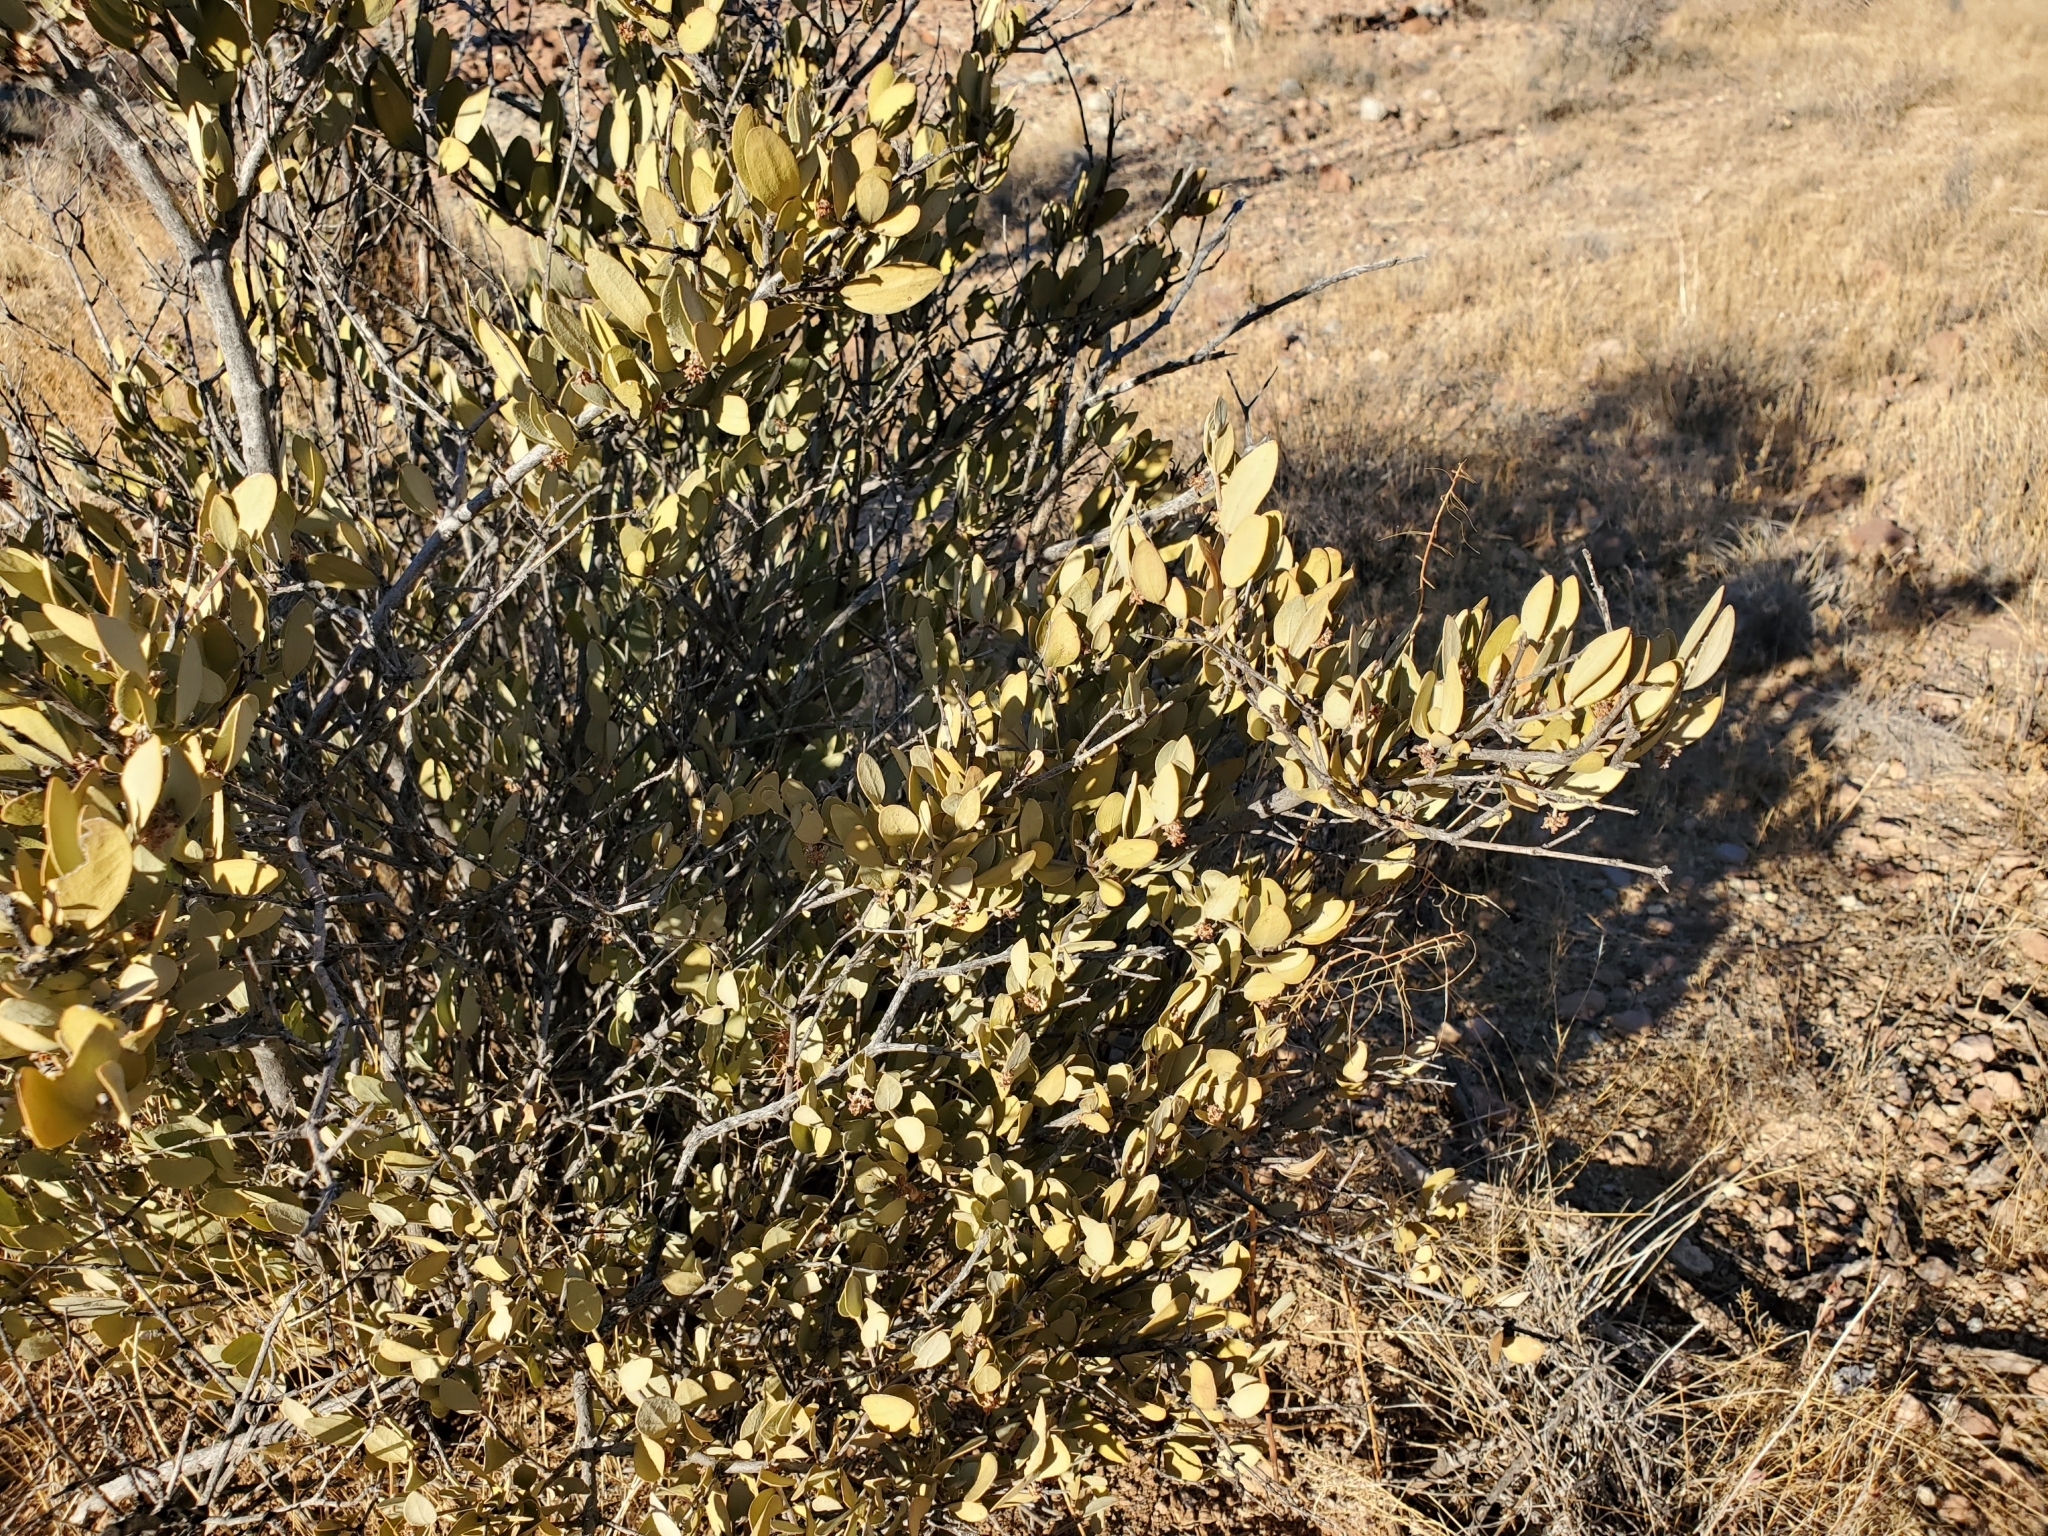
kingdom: Plantae
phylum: Tracheophyta
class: Magnoliopsida
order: Caryophyllales
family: Simmondsiaceae
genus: Simmondsia
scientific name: Simmondsia chinensis
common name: Jojoba
